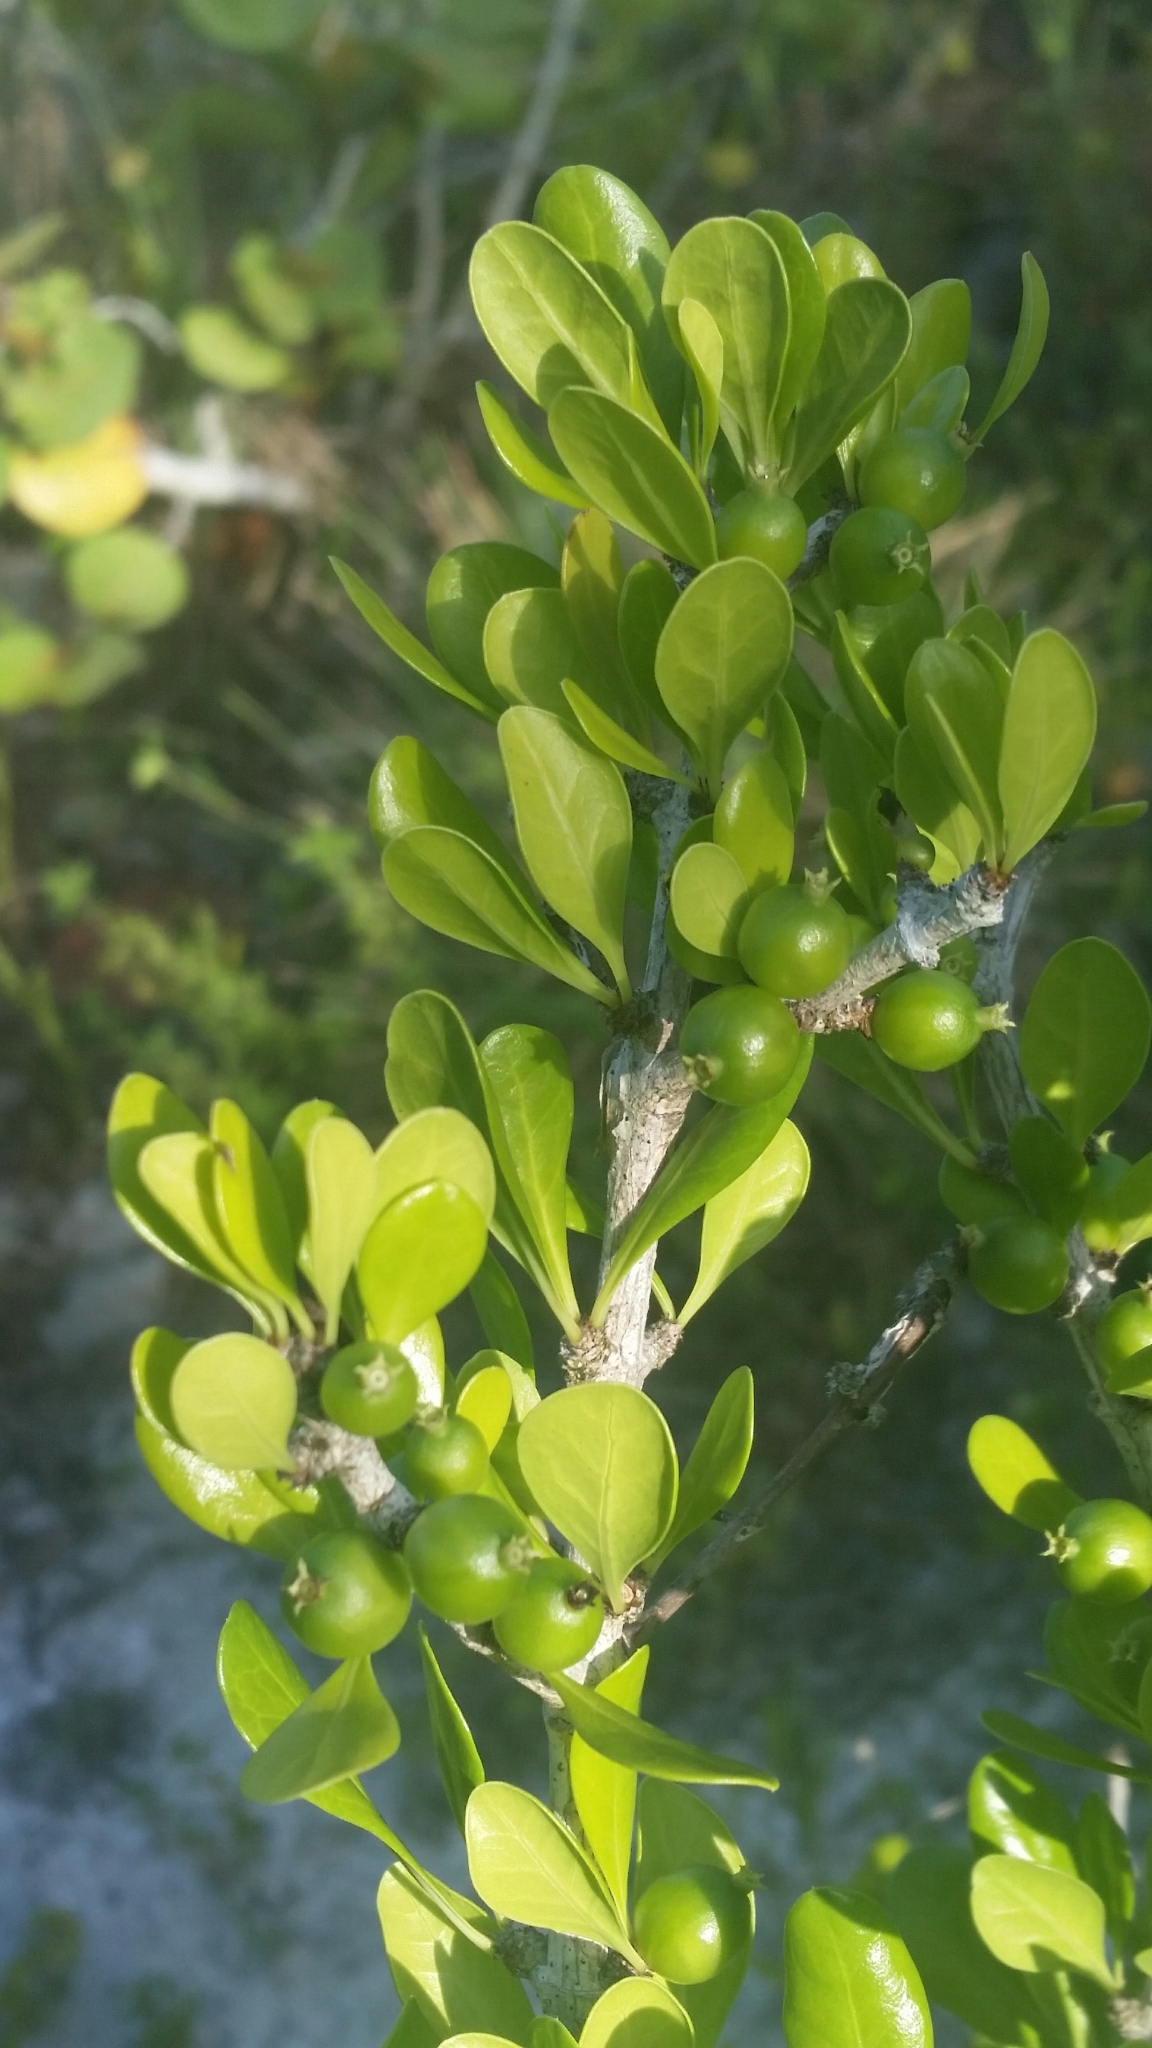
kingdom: Plantae
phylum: Tracheophyta
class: Magnoliopsida
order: Gentianales
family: Rubiaceae
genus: Randia
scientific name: Randia aculeata
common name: Inkberry
